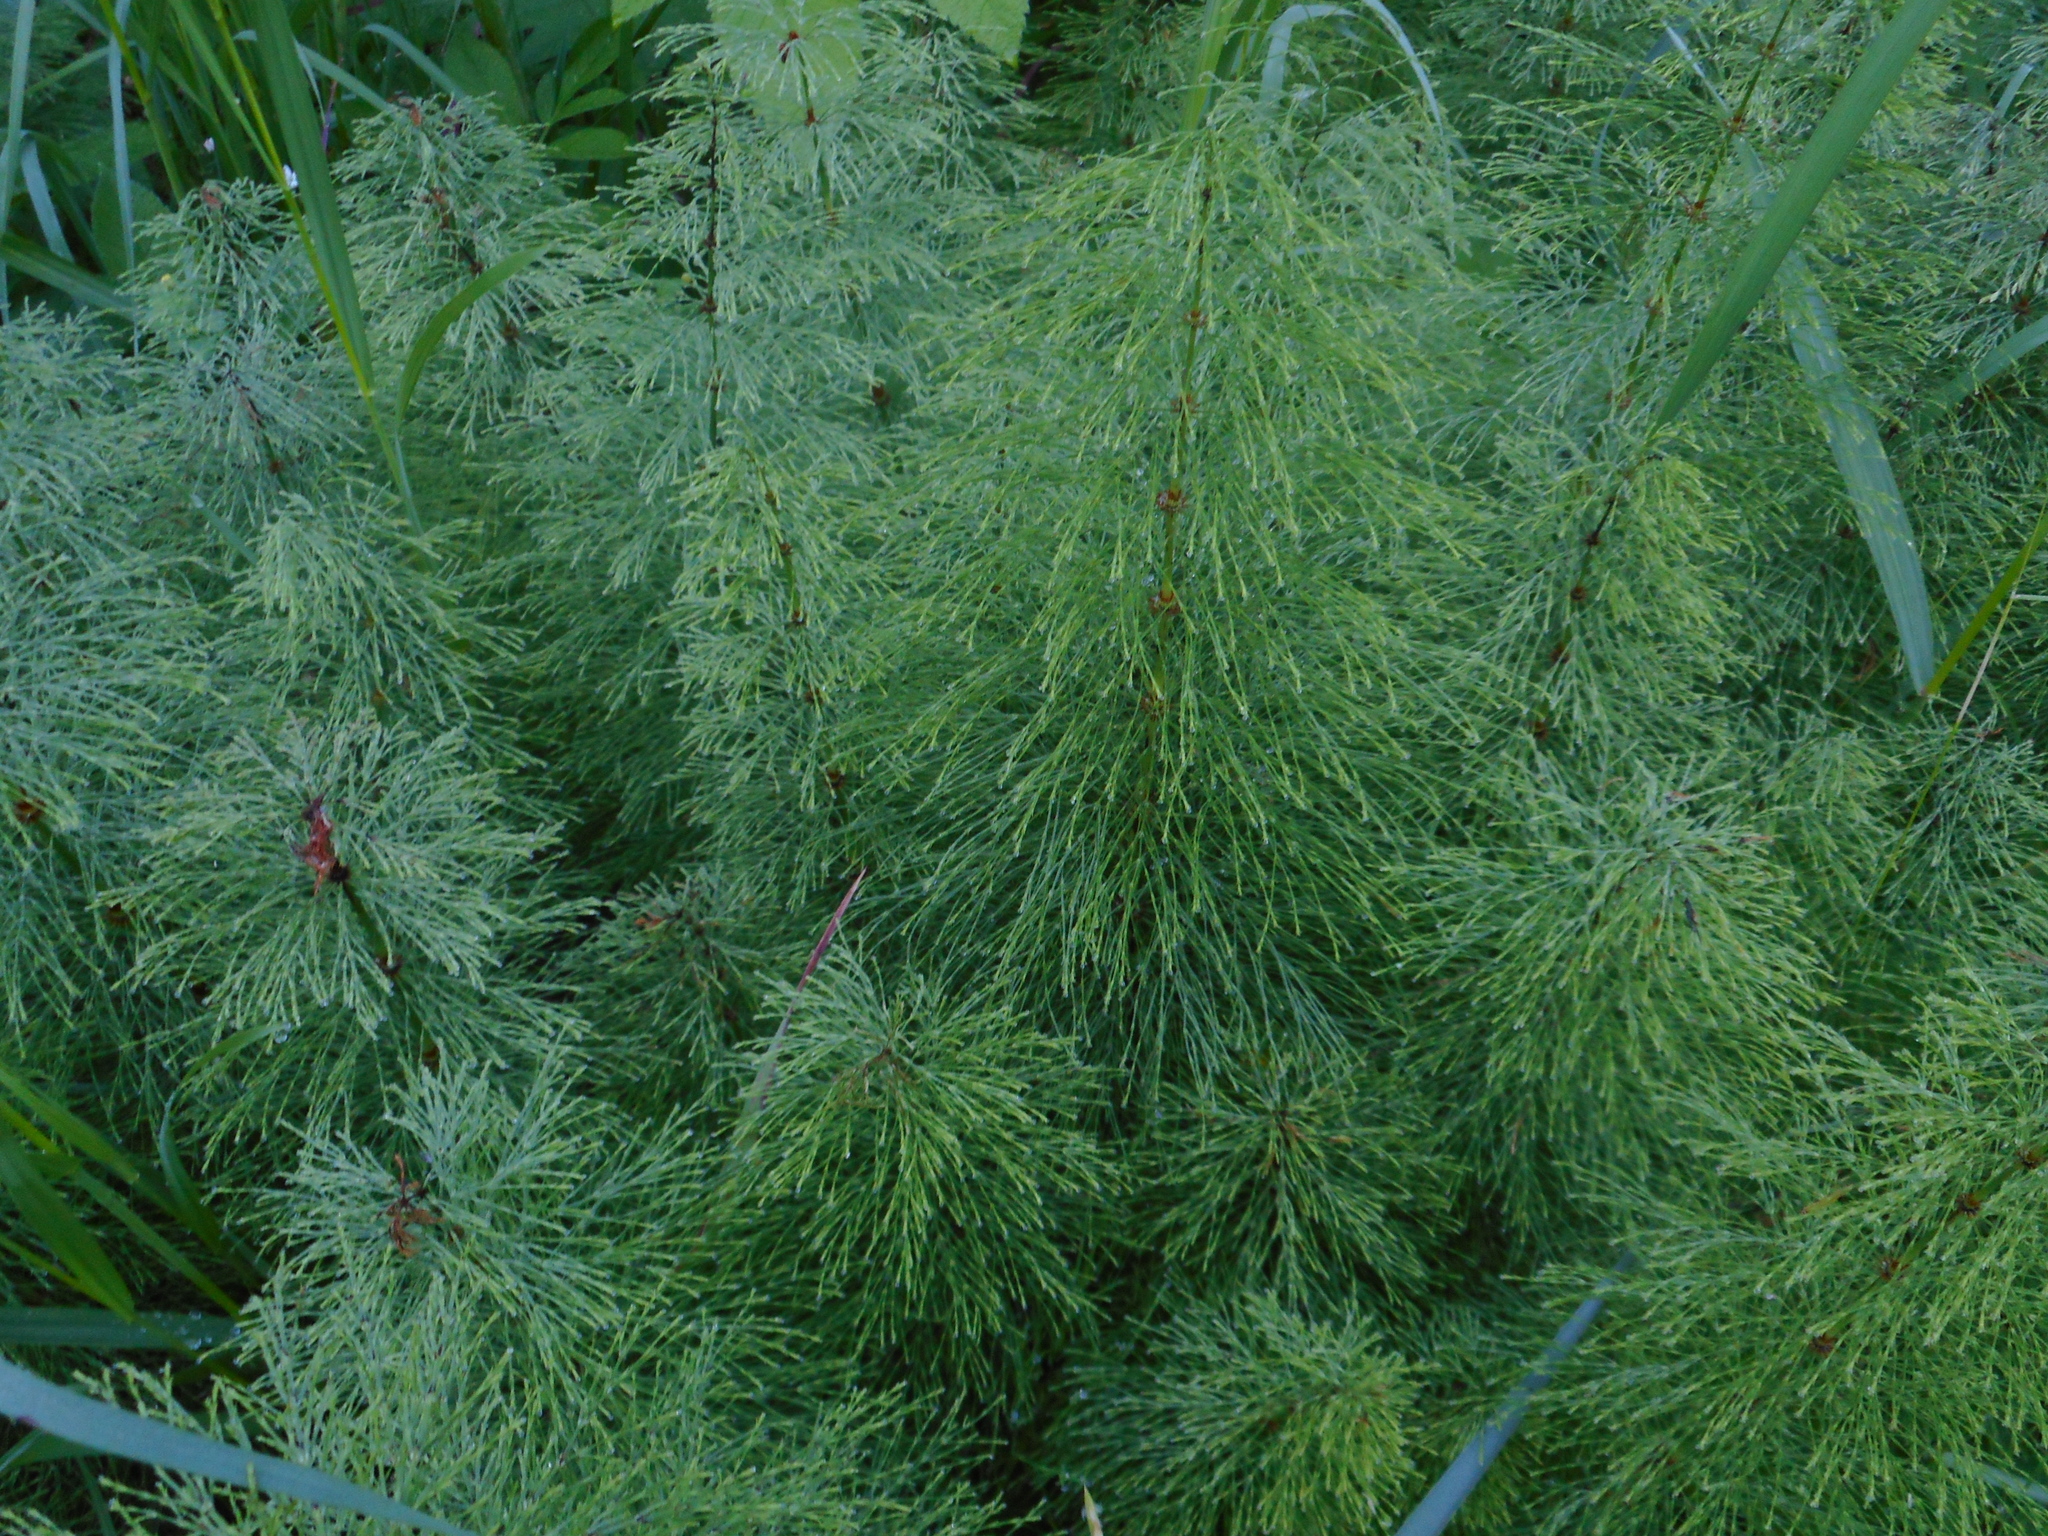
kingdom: Plantae
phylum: Tracheophyta
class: Polypodiopsida
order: Equisetales
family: Equisetaceae
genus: Equisetum
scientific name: Equisetum sylvaticum
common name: Wood horsetail
